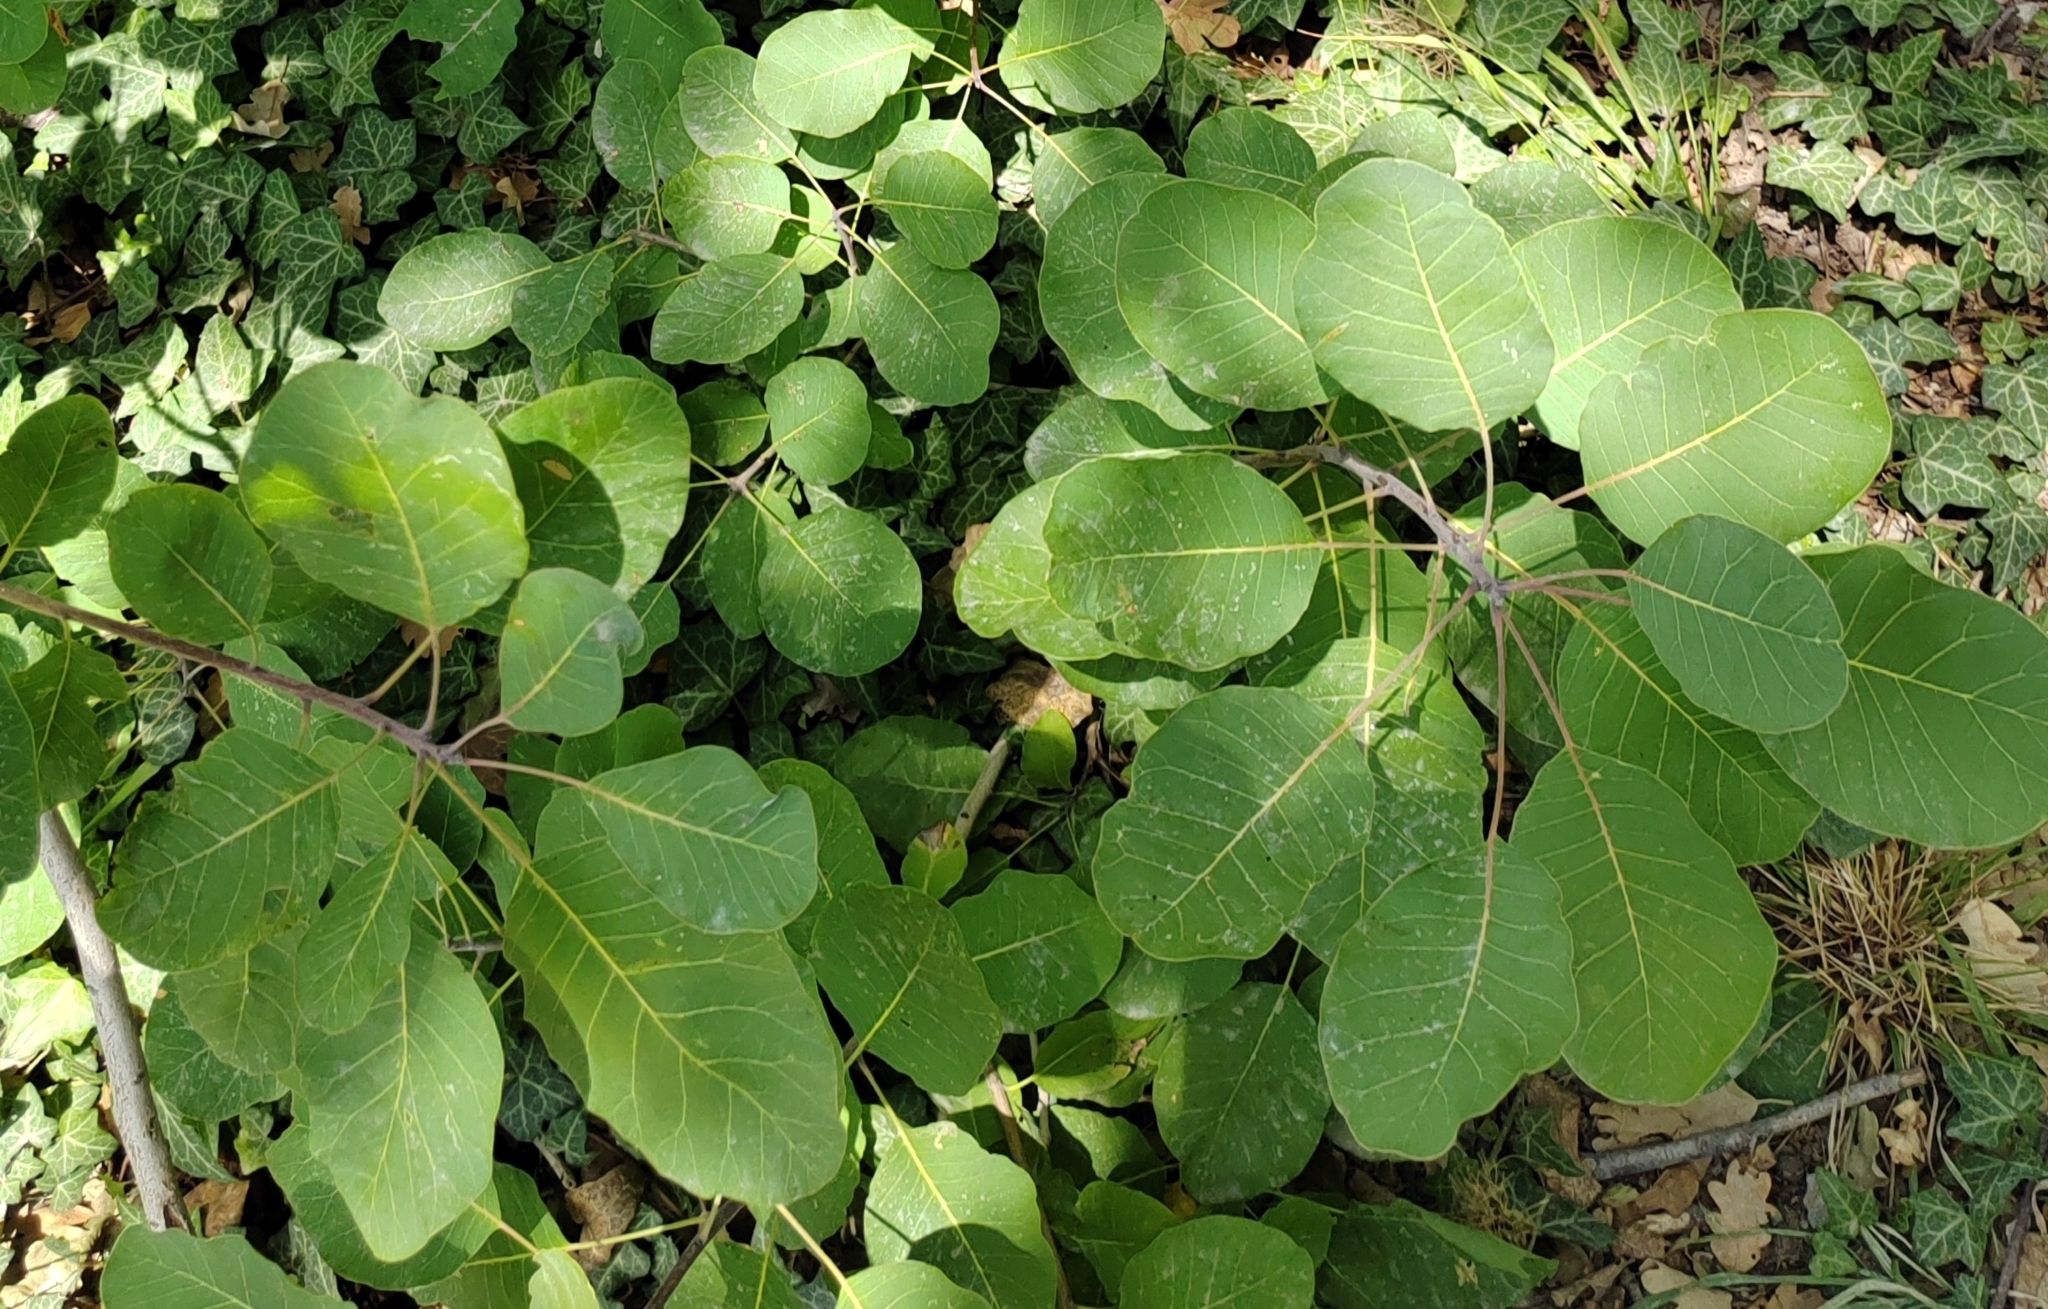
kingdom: Plantae
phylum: Tracheophyta
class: Magnoliopsida
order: Sapindales
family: Anacardiaceae
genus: Cotinus
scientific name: Cotinus coggygria
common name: Smoke-tree
